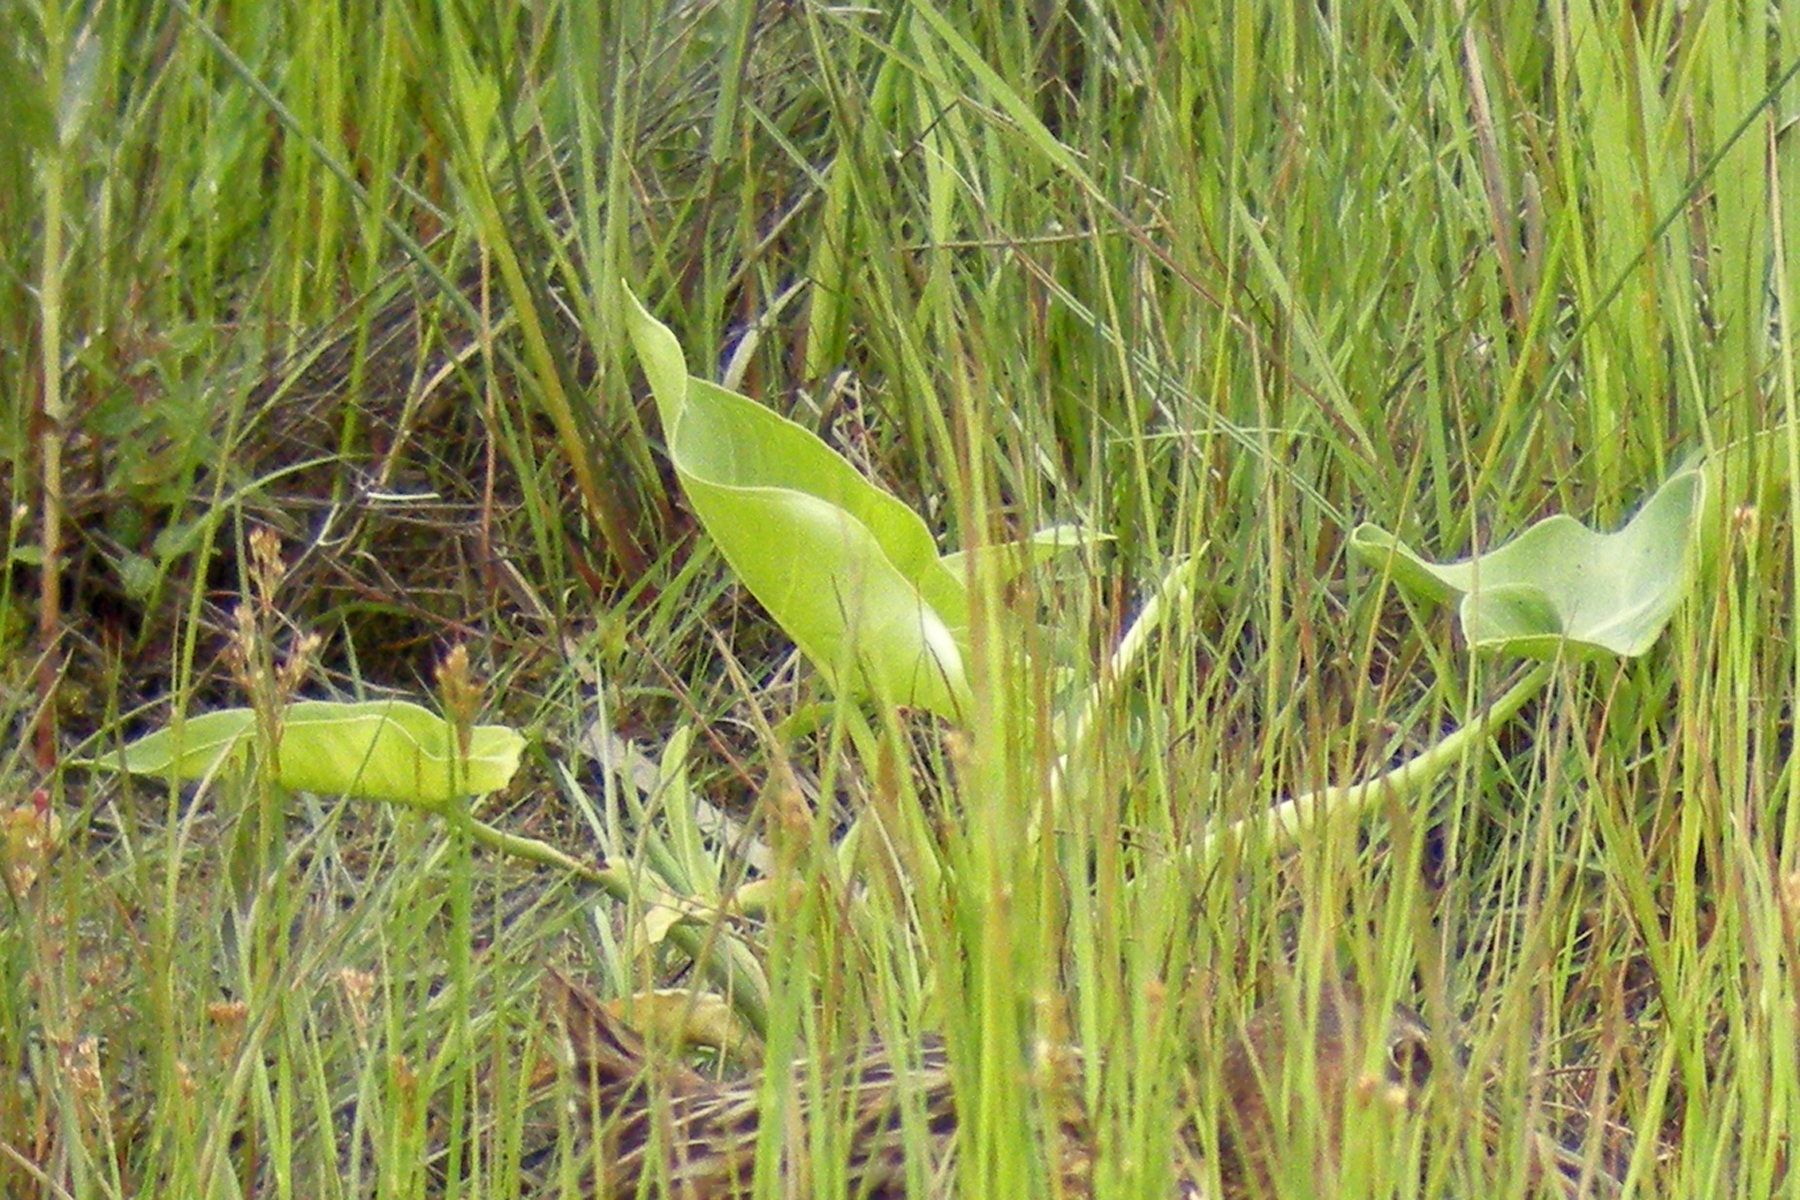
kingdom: Plantae
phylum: Tracheophyta
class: Liliopsida
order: Alismatales
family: Araceae
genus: Peltandra
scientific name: Peltandra virginica
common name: Arrow arum
